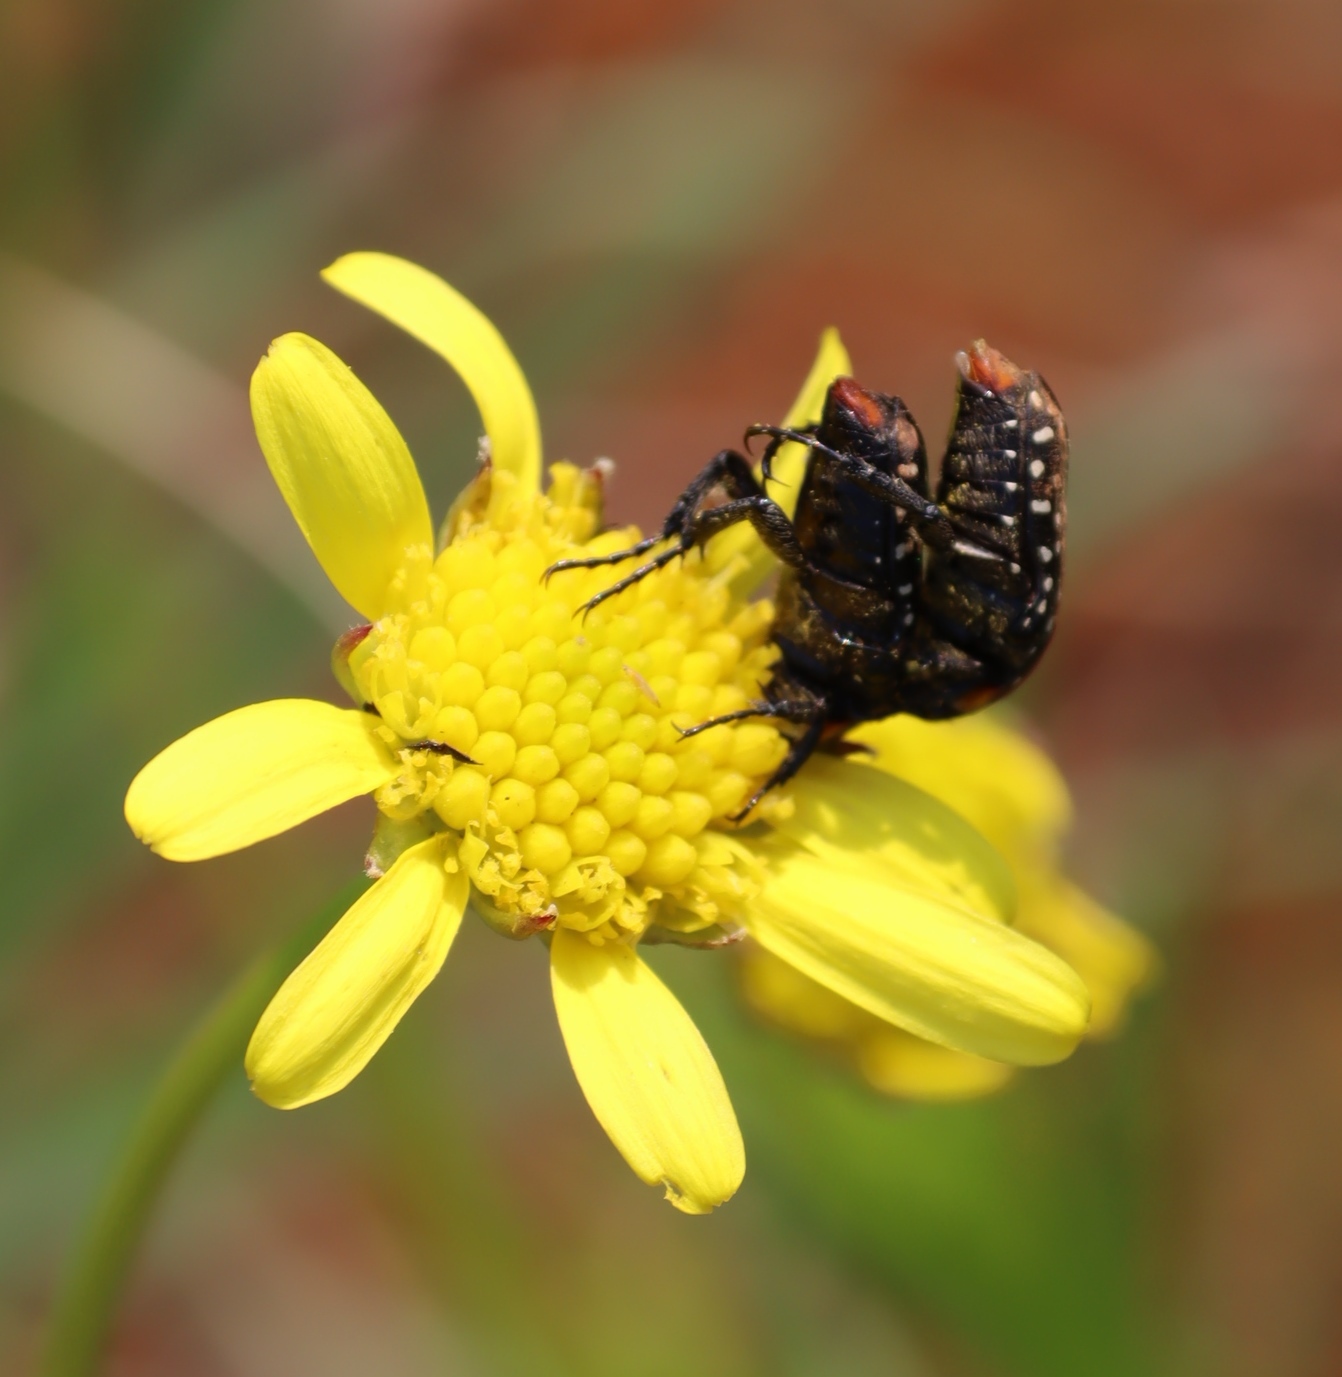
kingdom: Animalia
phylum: Arthropoda
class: Insecta
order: Coleoptera
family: Scarabaeidae
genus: Oxythyrea
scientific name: Oxythyrea
